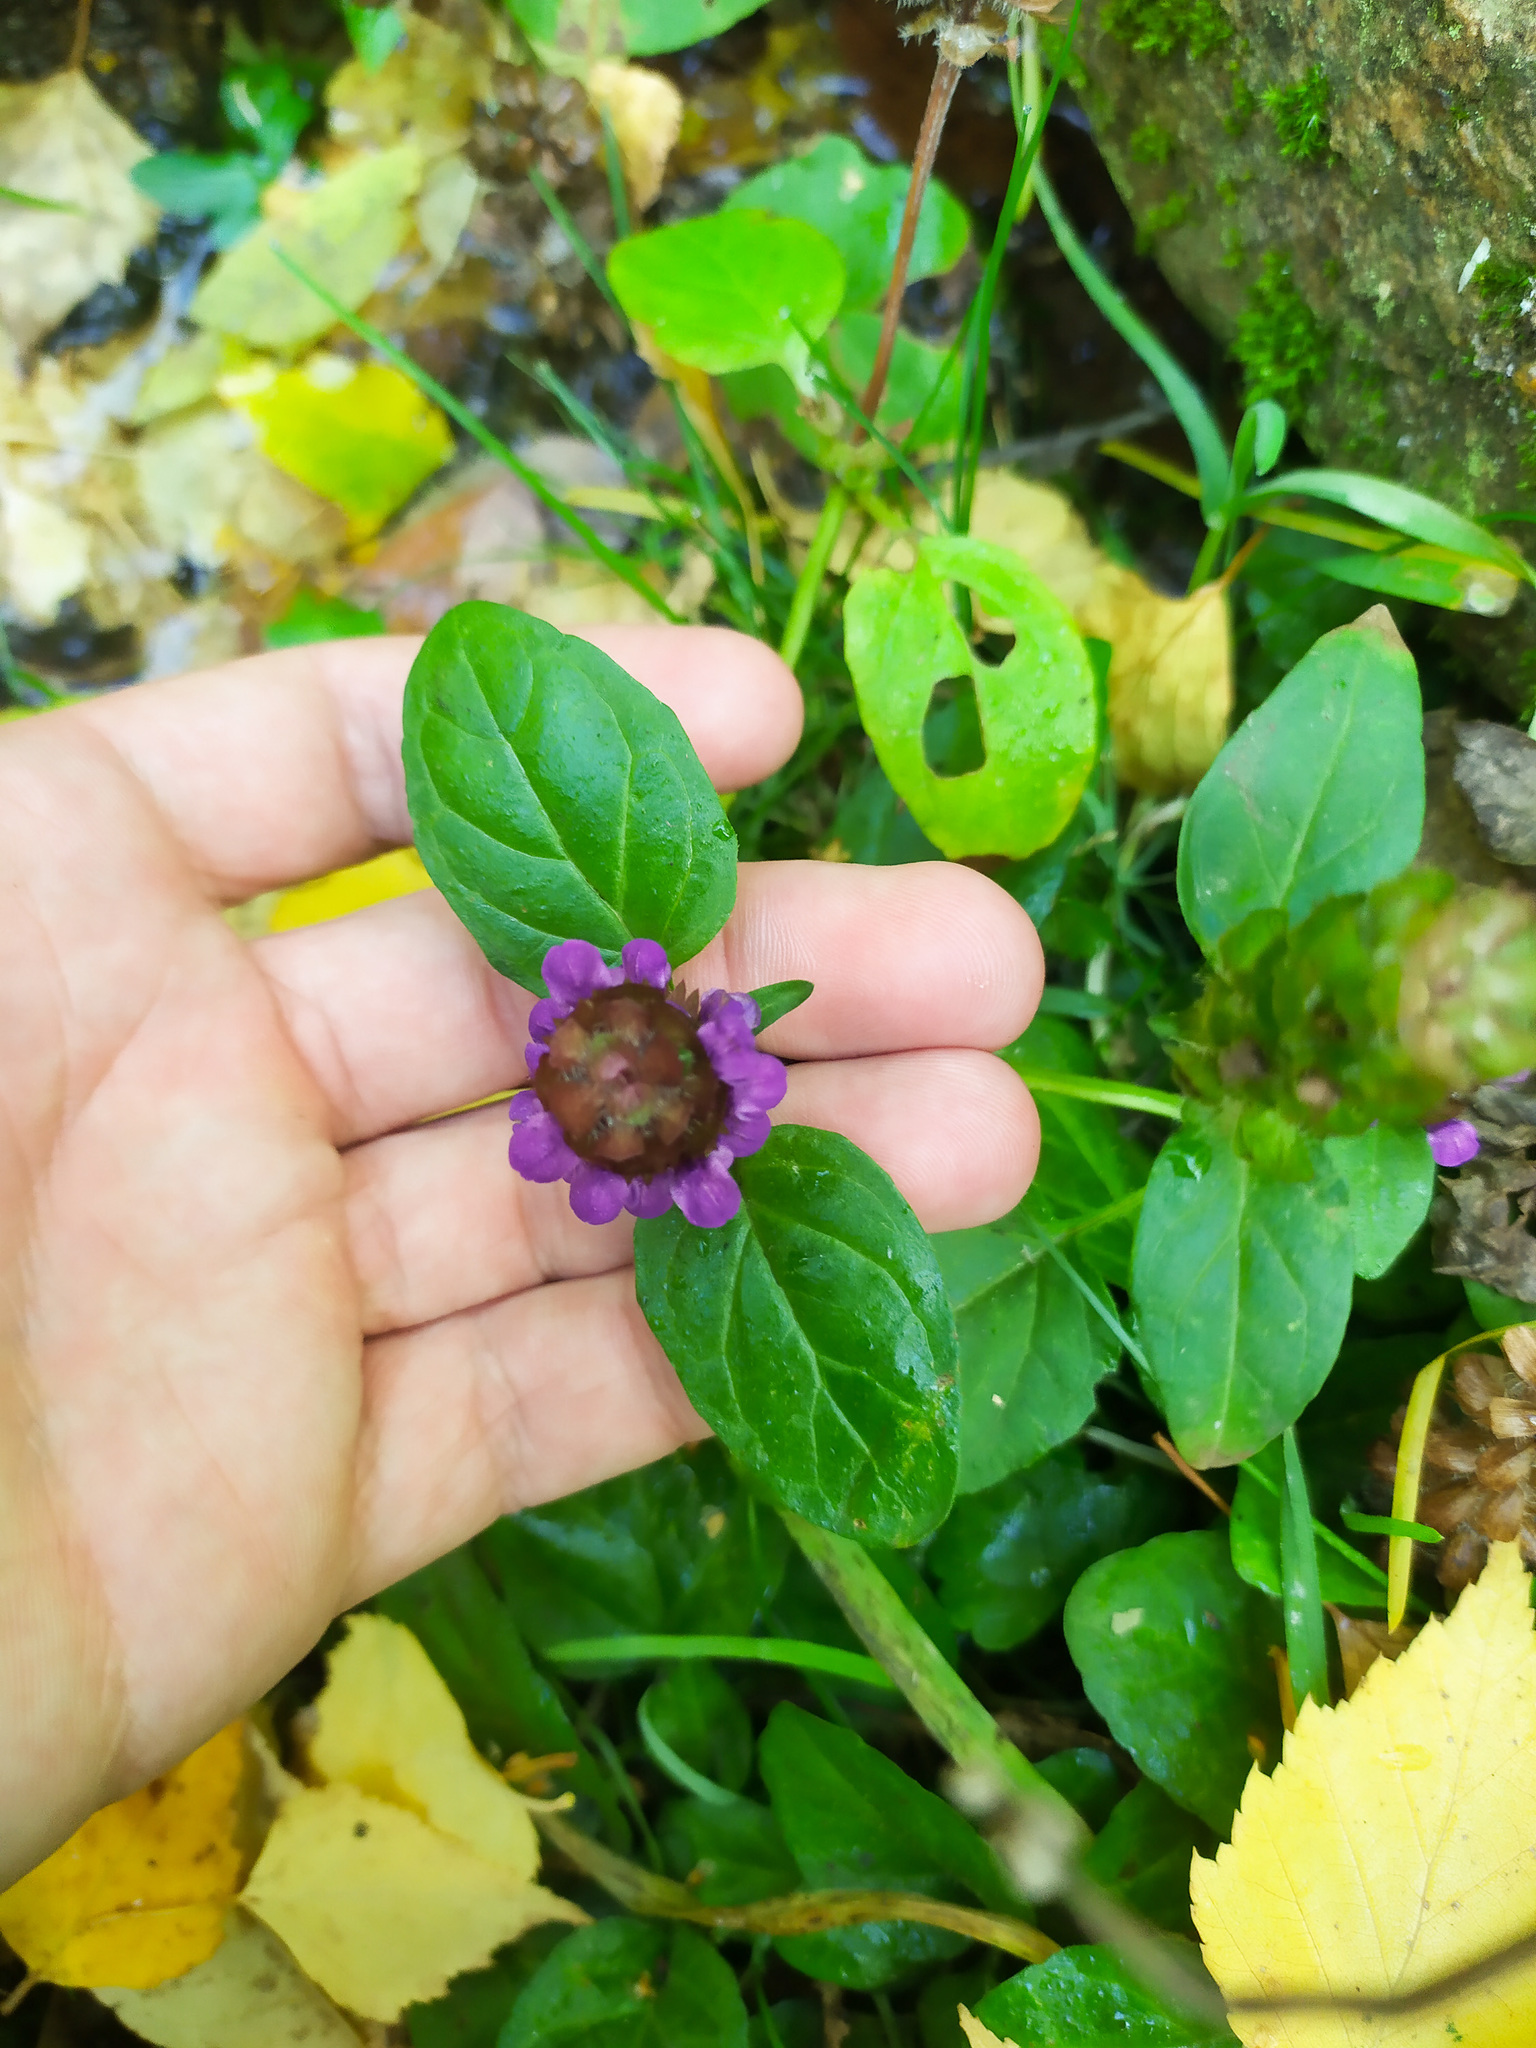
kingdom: Plantae
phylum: Tracheophyta
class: Magnoliopsida
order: Lamiales
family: Lamiaceae
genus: Prunella
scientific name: Prunella vulgaris
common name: Heal-all
